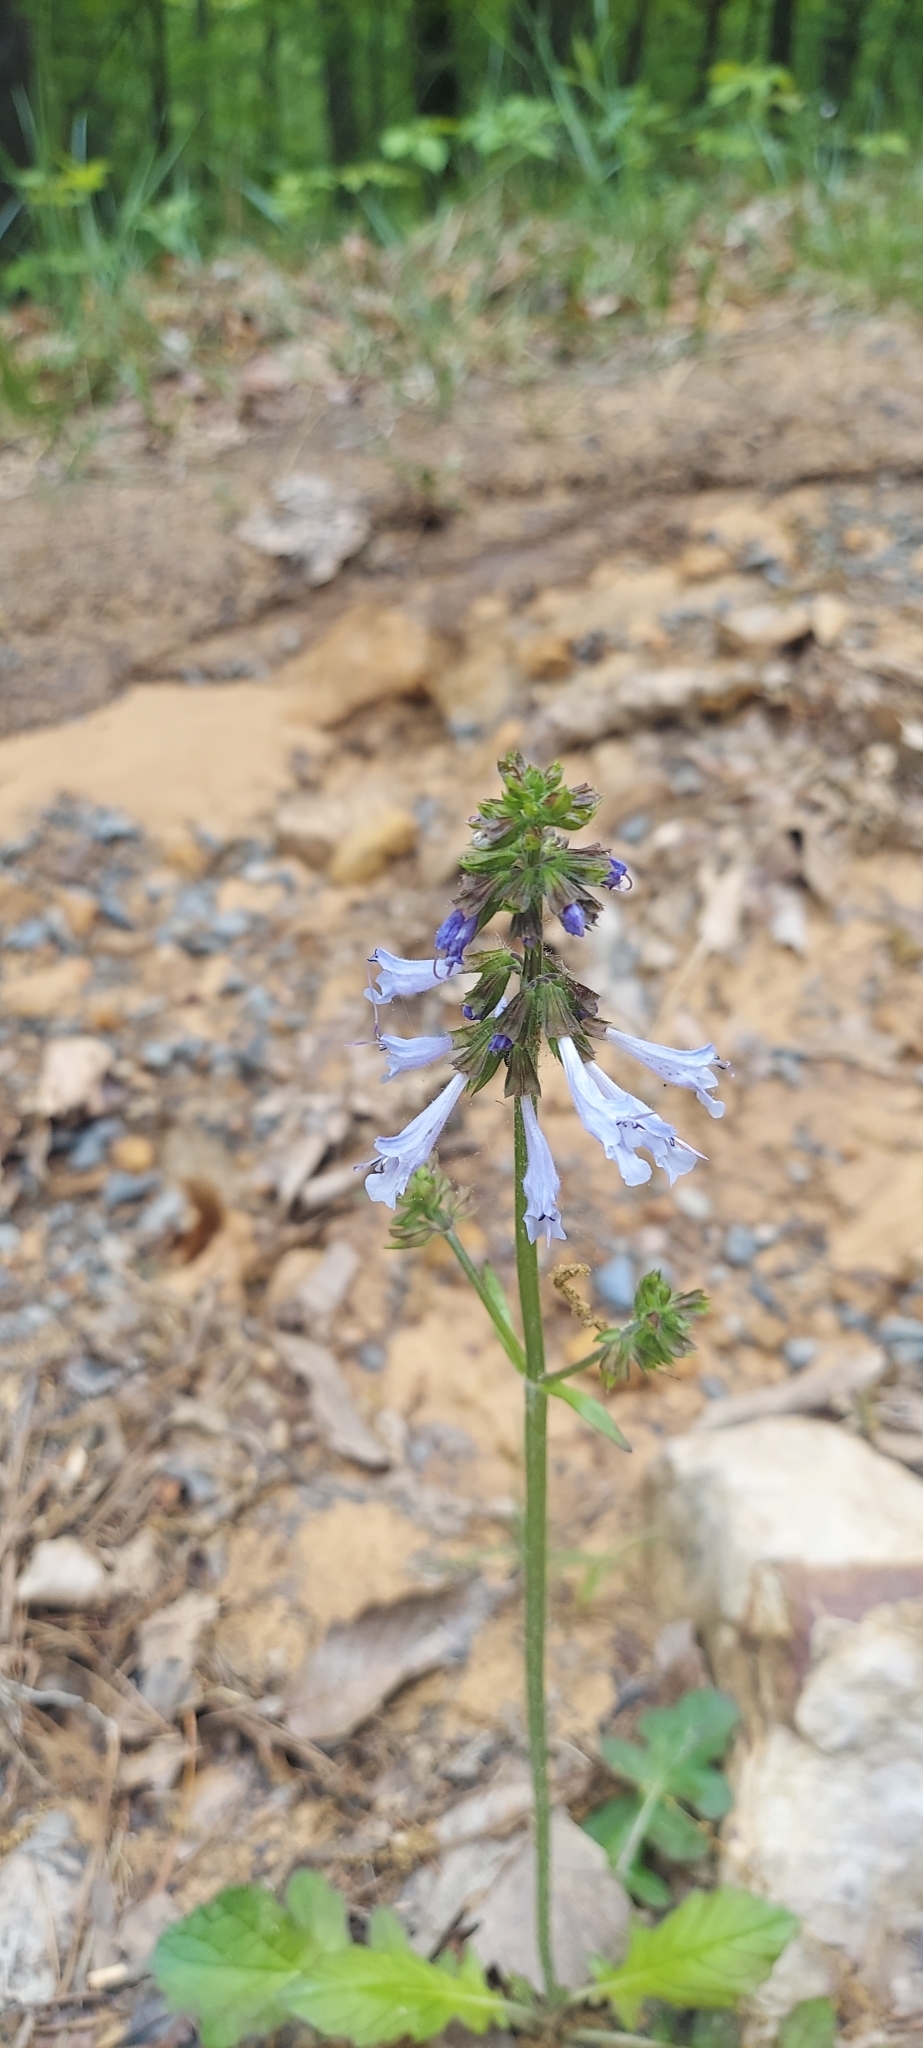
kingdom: Plantae
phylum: Tracheophyta
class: Magnoliopsida
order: Lamiales
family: Lamiaceae
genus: Salvia
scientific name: Salvia lyrata
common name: Cancerweed
